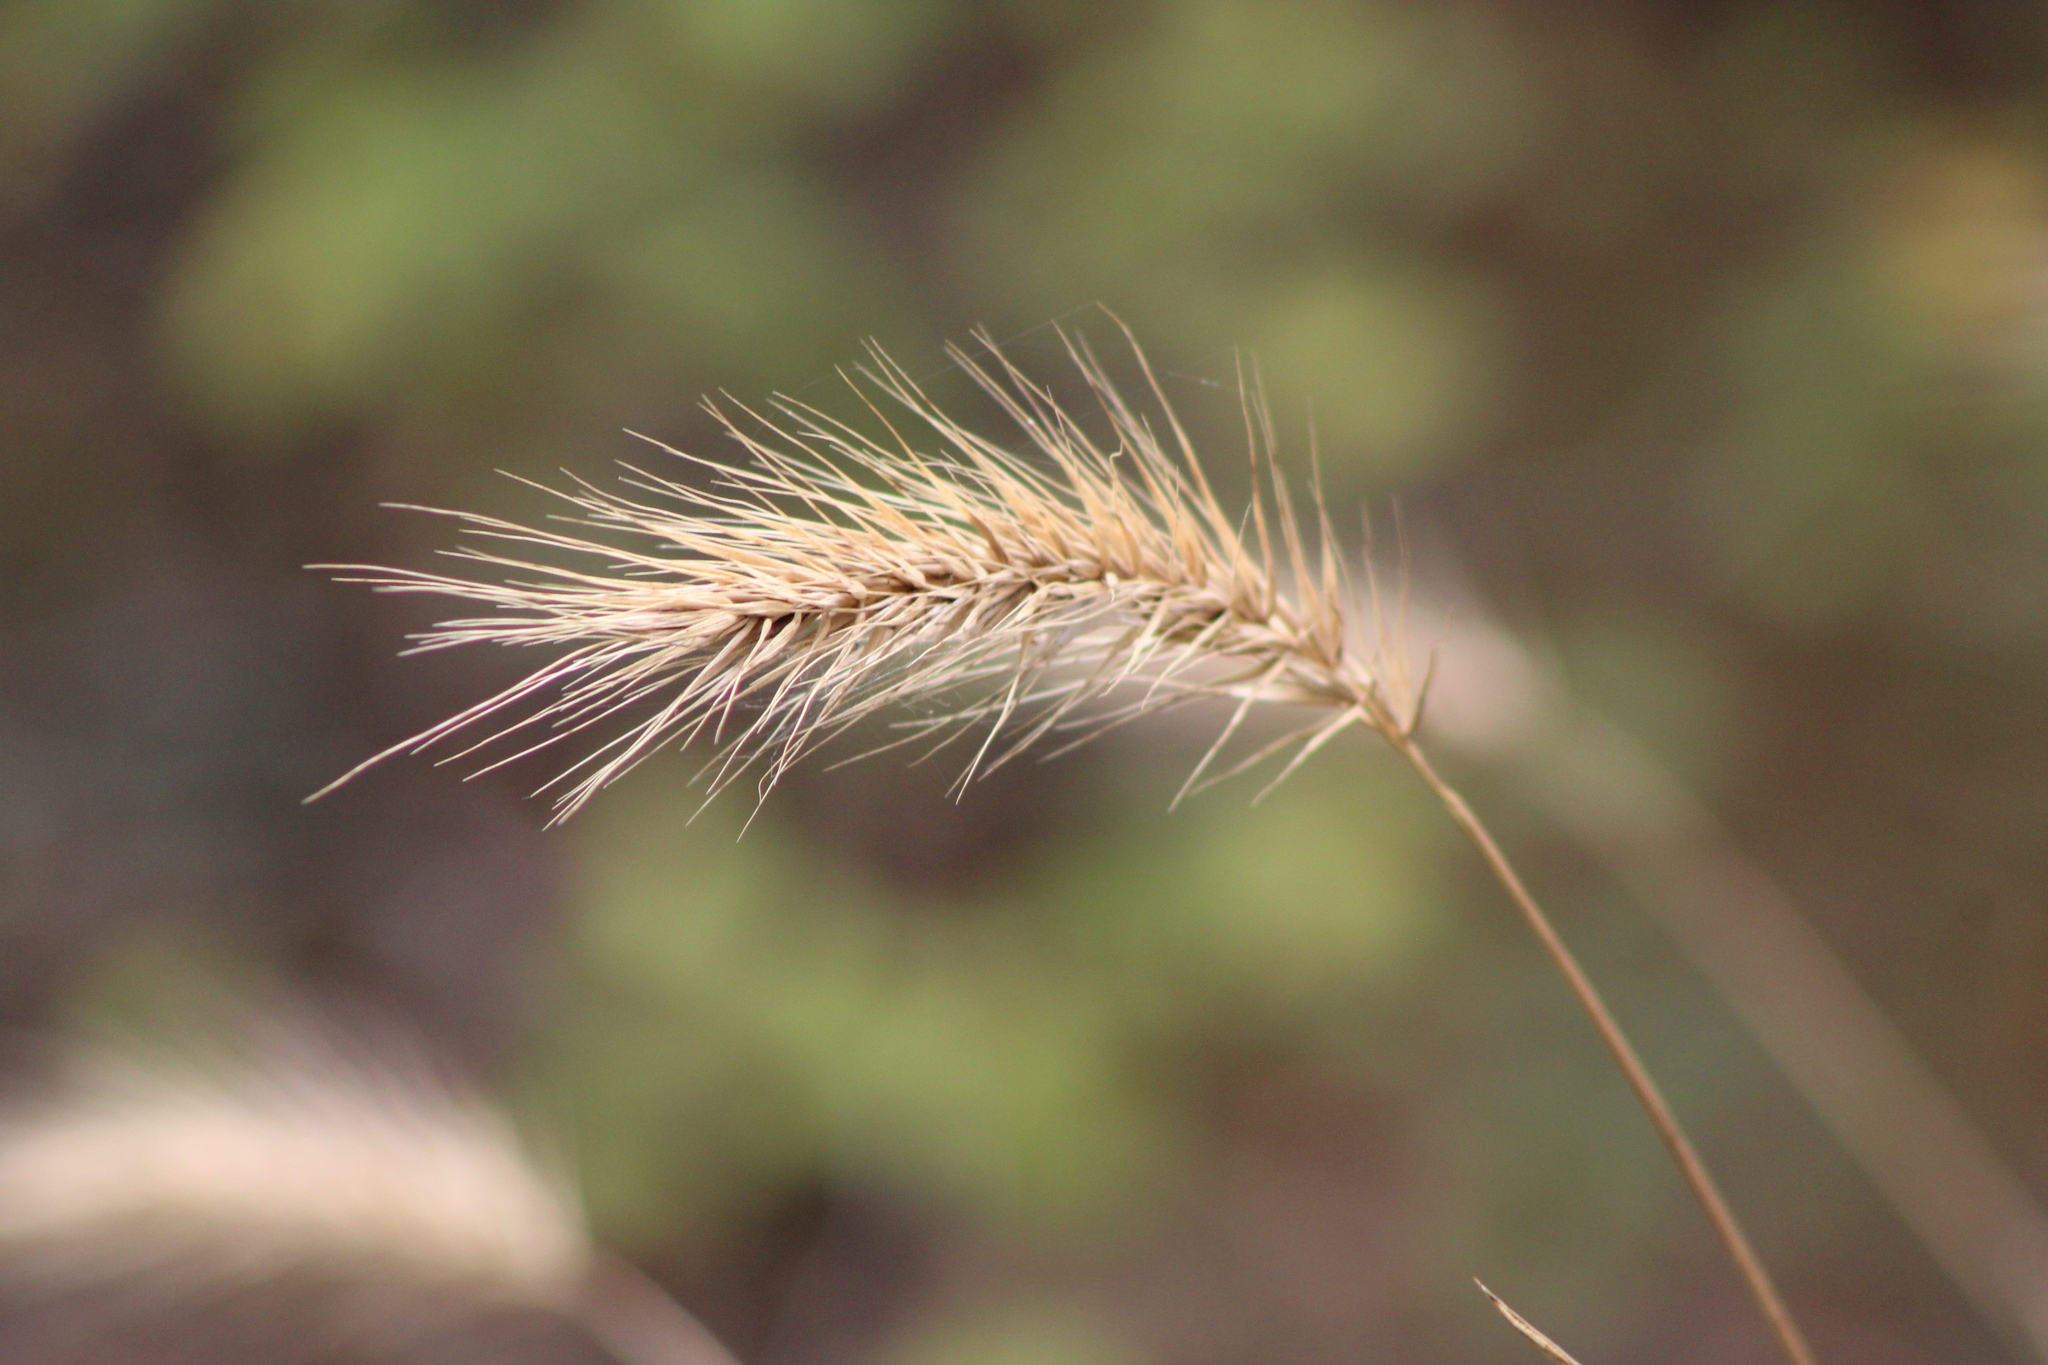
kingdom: Plantae
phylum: Tracheophyta
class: Liliopsida
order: Poales
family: Poaceae
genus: Elymus
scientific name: Elymus virginicus
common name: Common eastern wildrye
